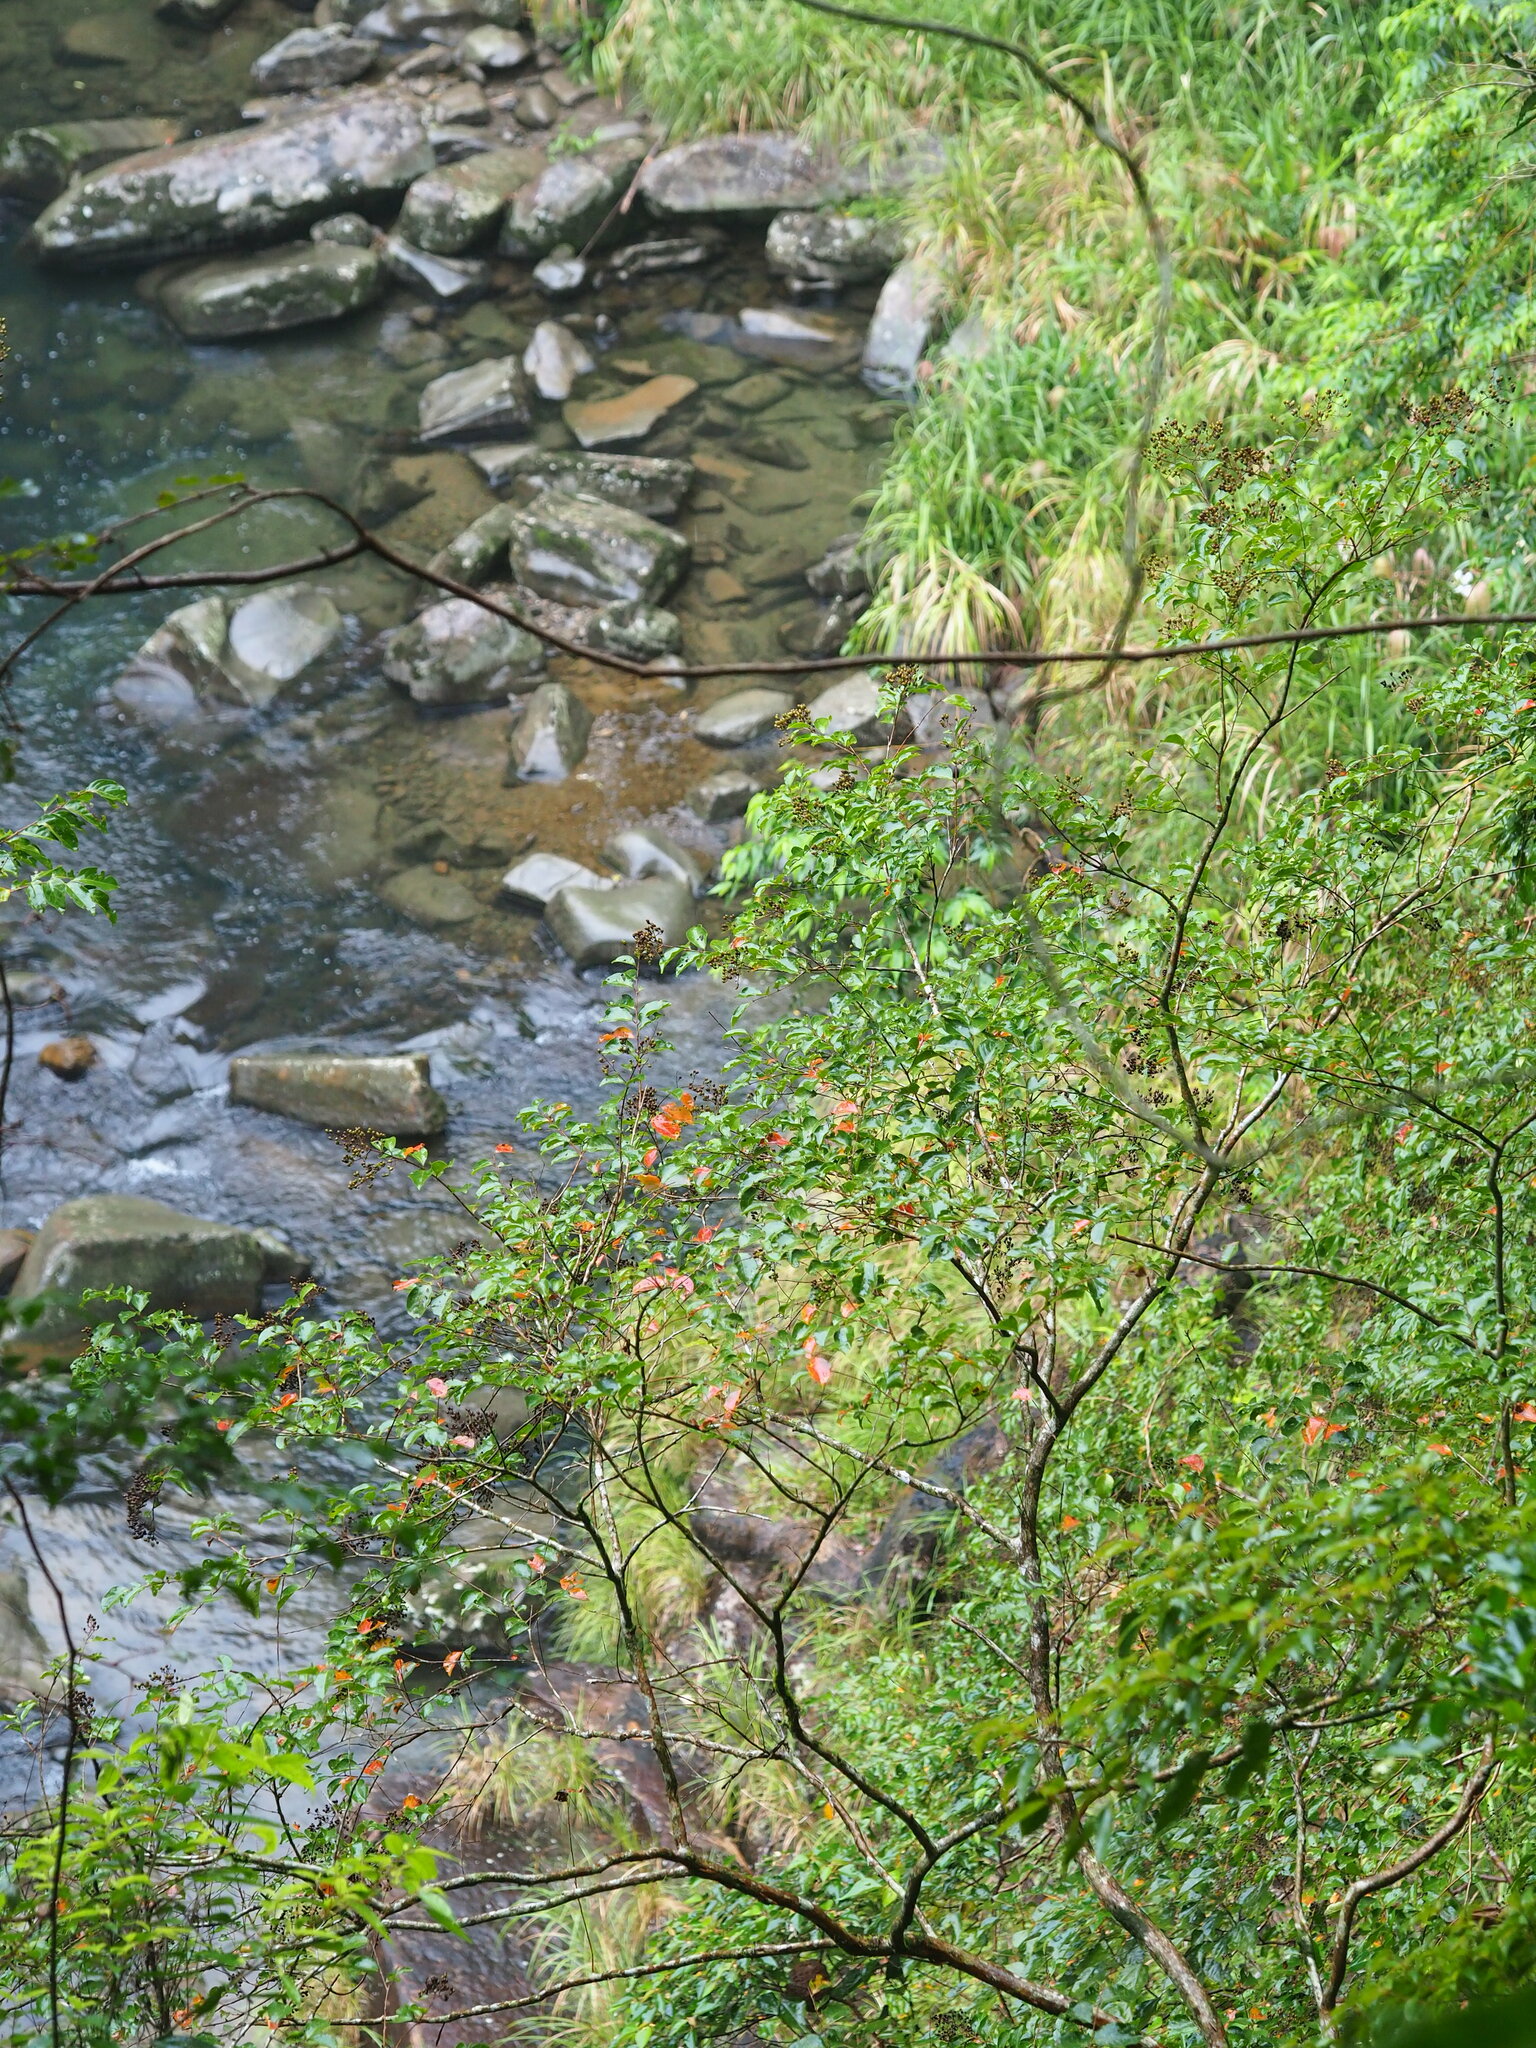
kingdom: Plantae
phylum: Tracheophyta
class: Magnoliopsida
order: Myrtales
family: Lythraceae
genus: Lagerstroemia
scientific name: Lagerstroemia subcostata
